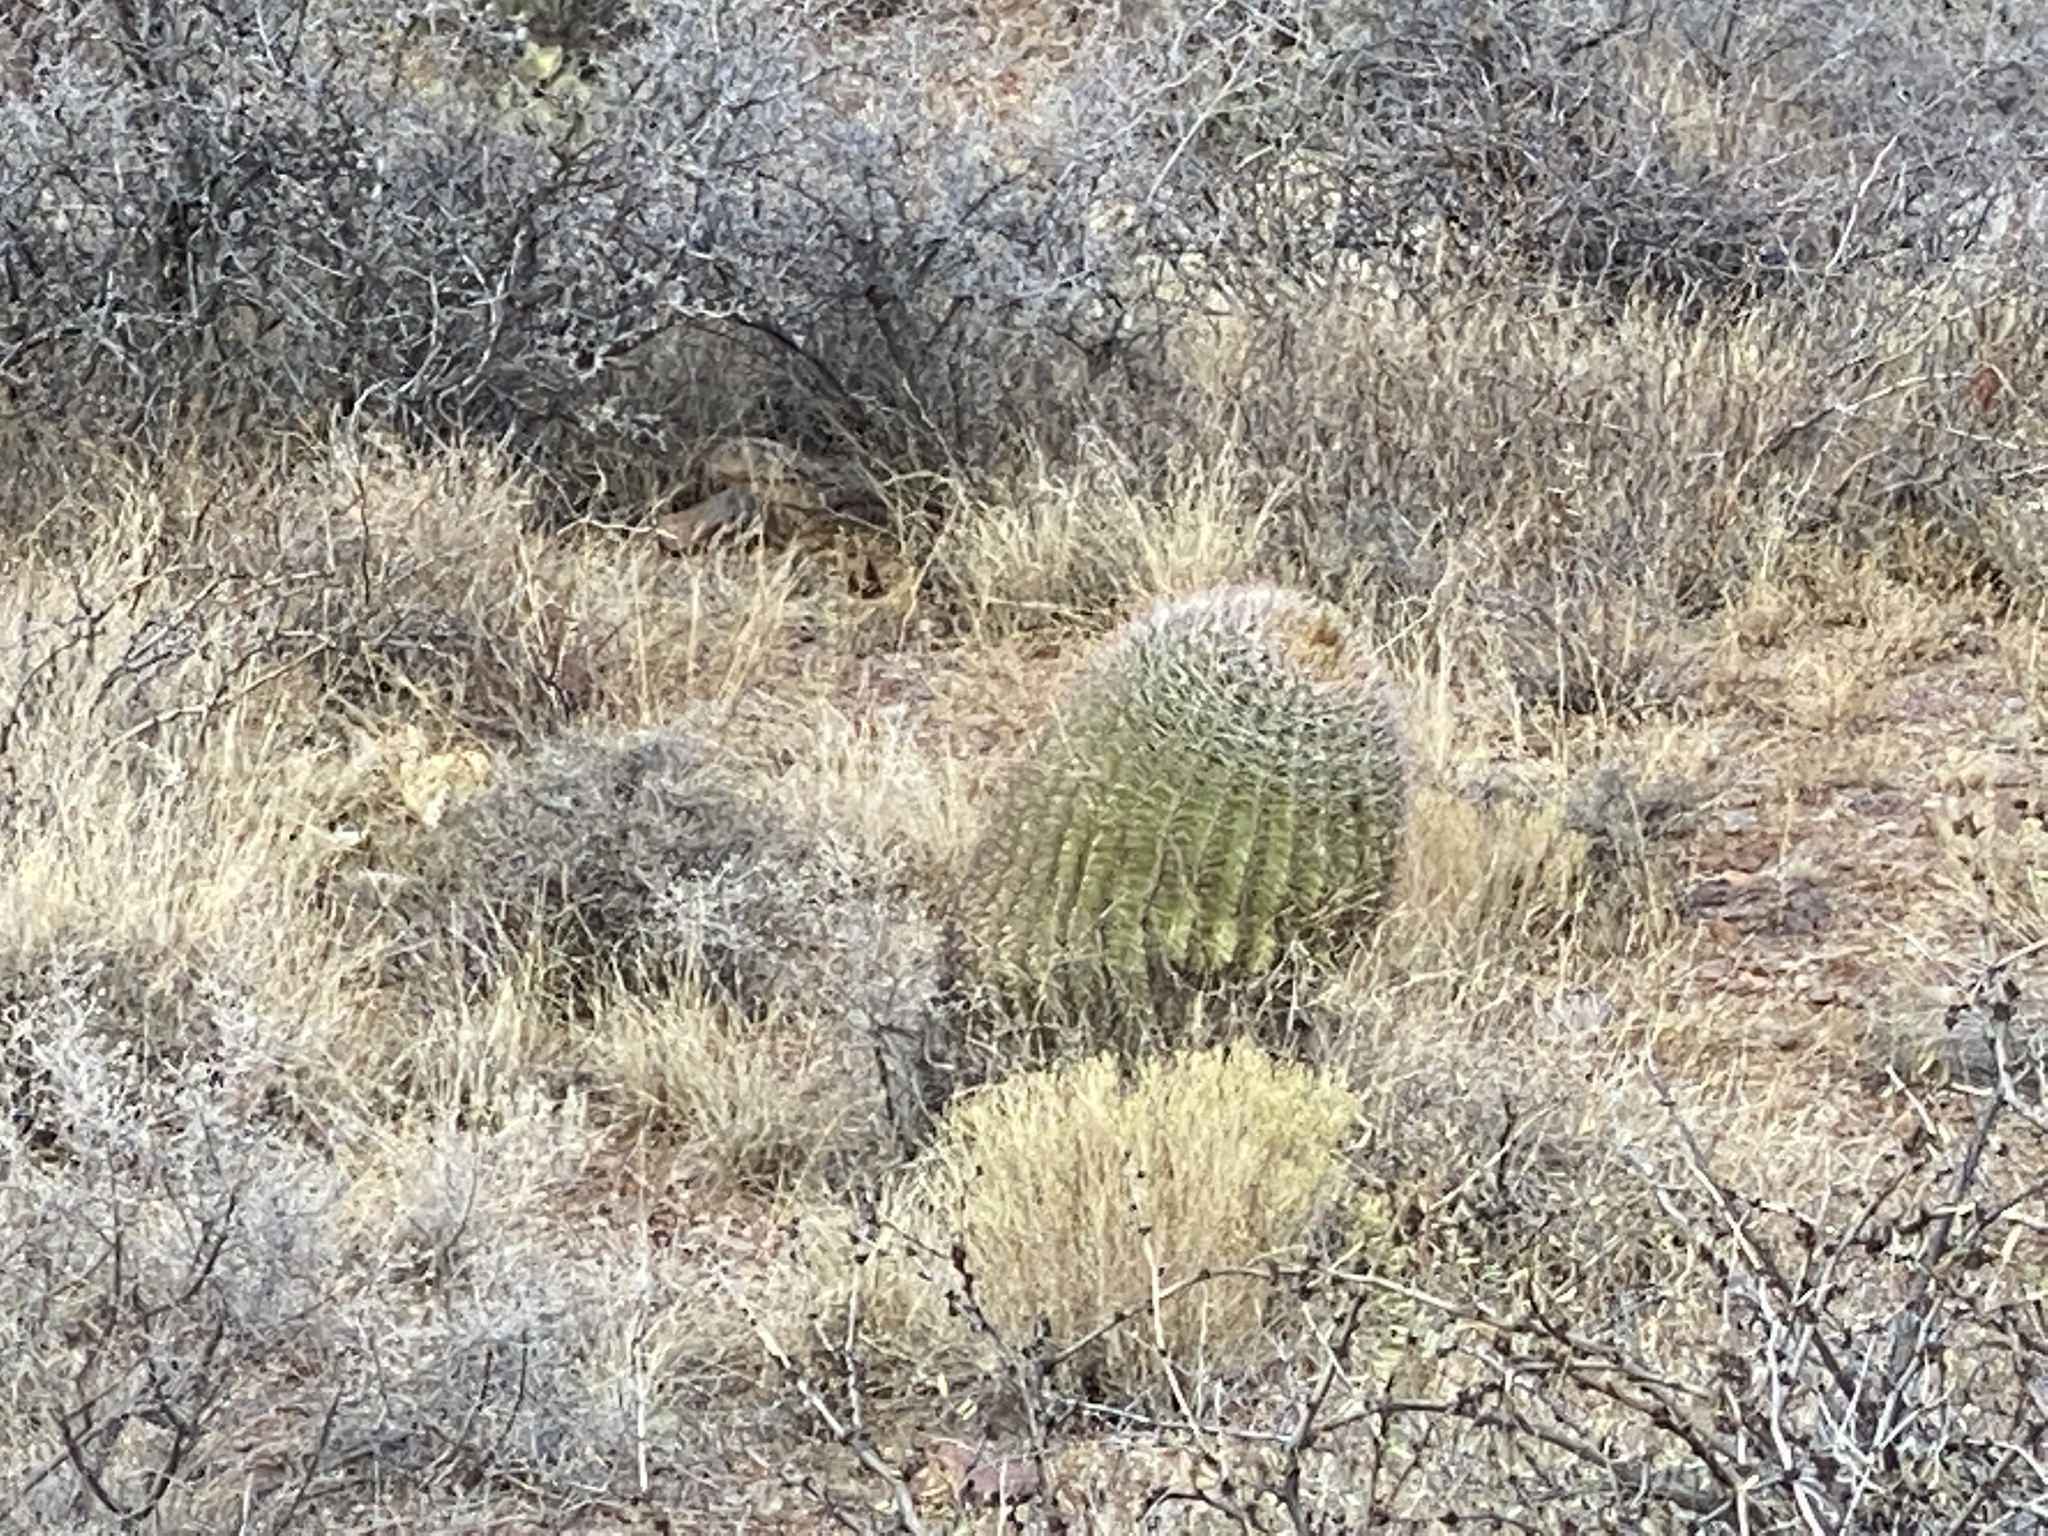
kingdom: Plantae
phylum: Tracheophyta
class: Magnoliopsida
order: Caryophyllales
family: Cactaceae
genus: Ferocactus
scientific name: Ferocactus wislizeni
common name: Candy barrel cactus
